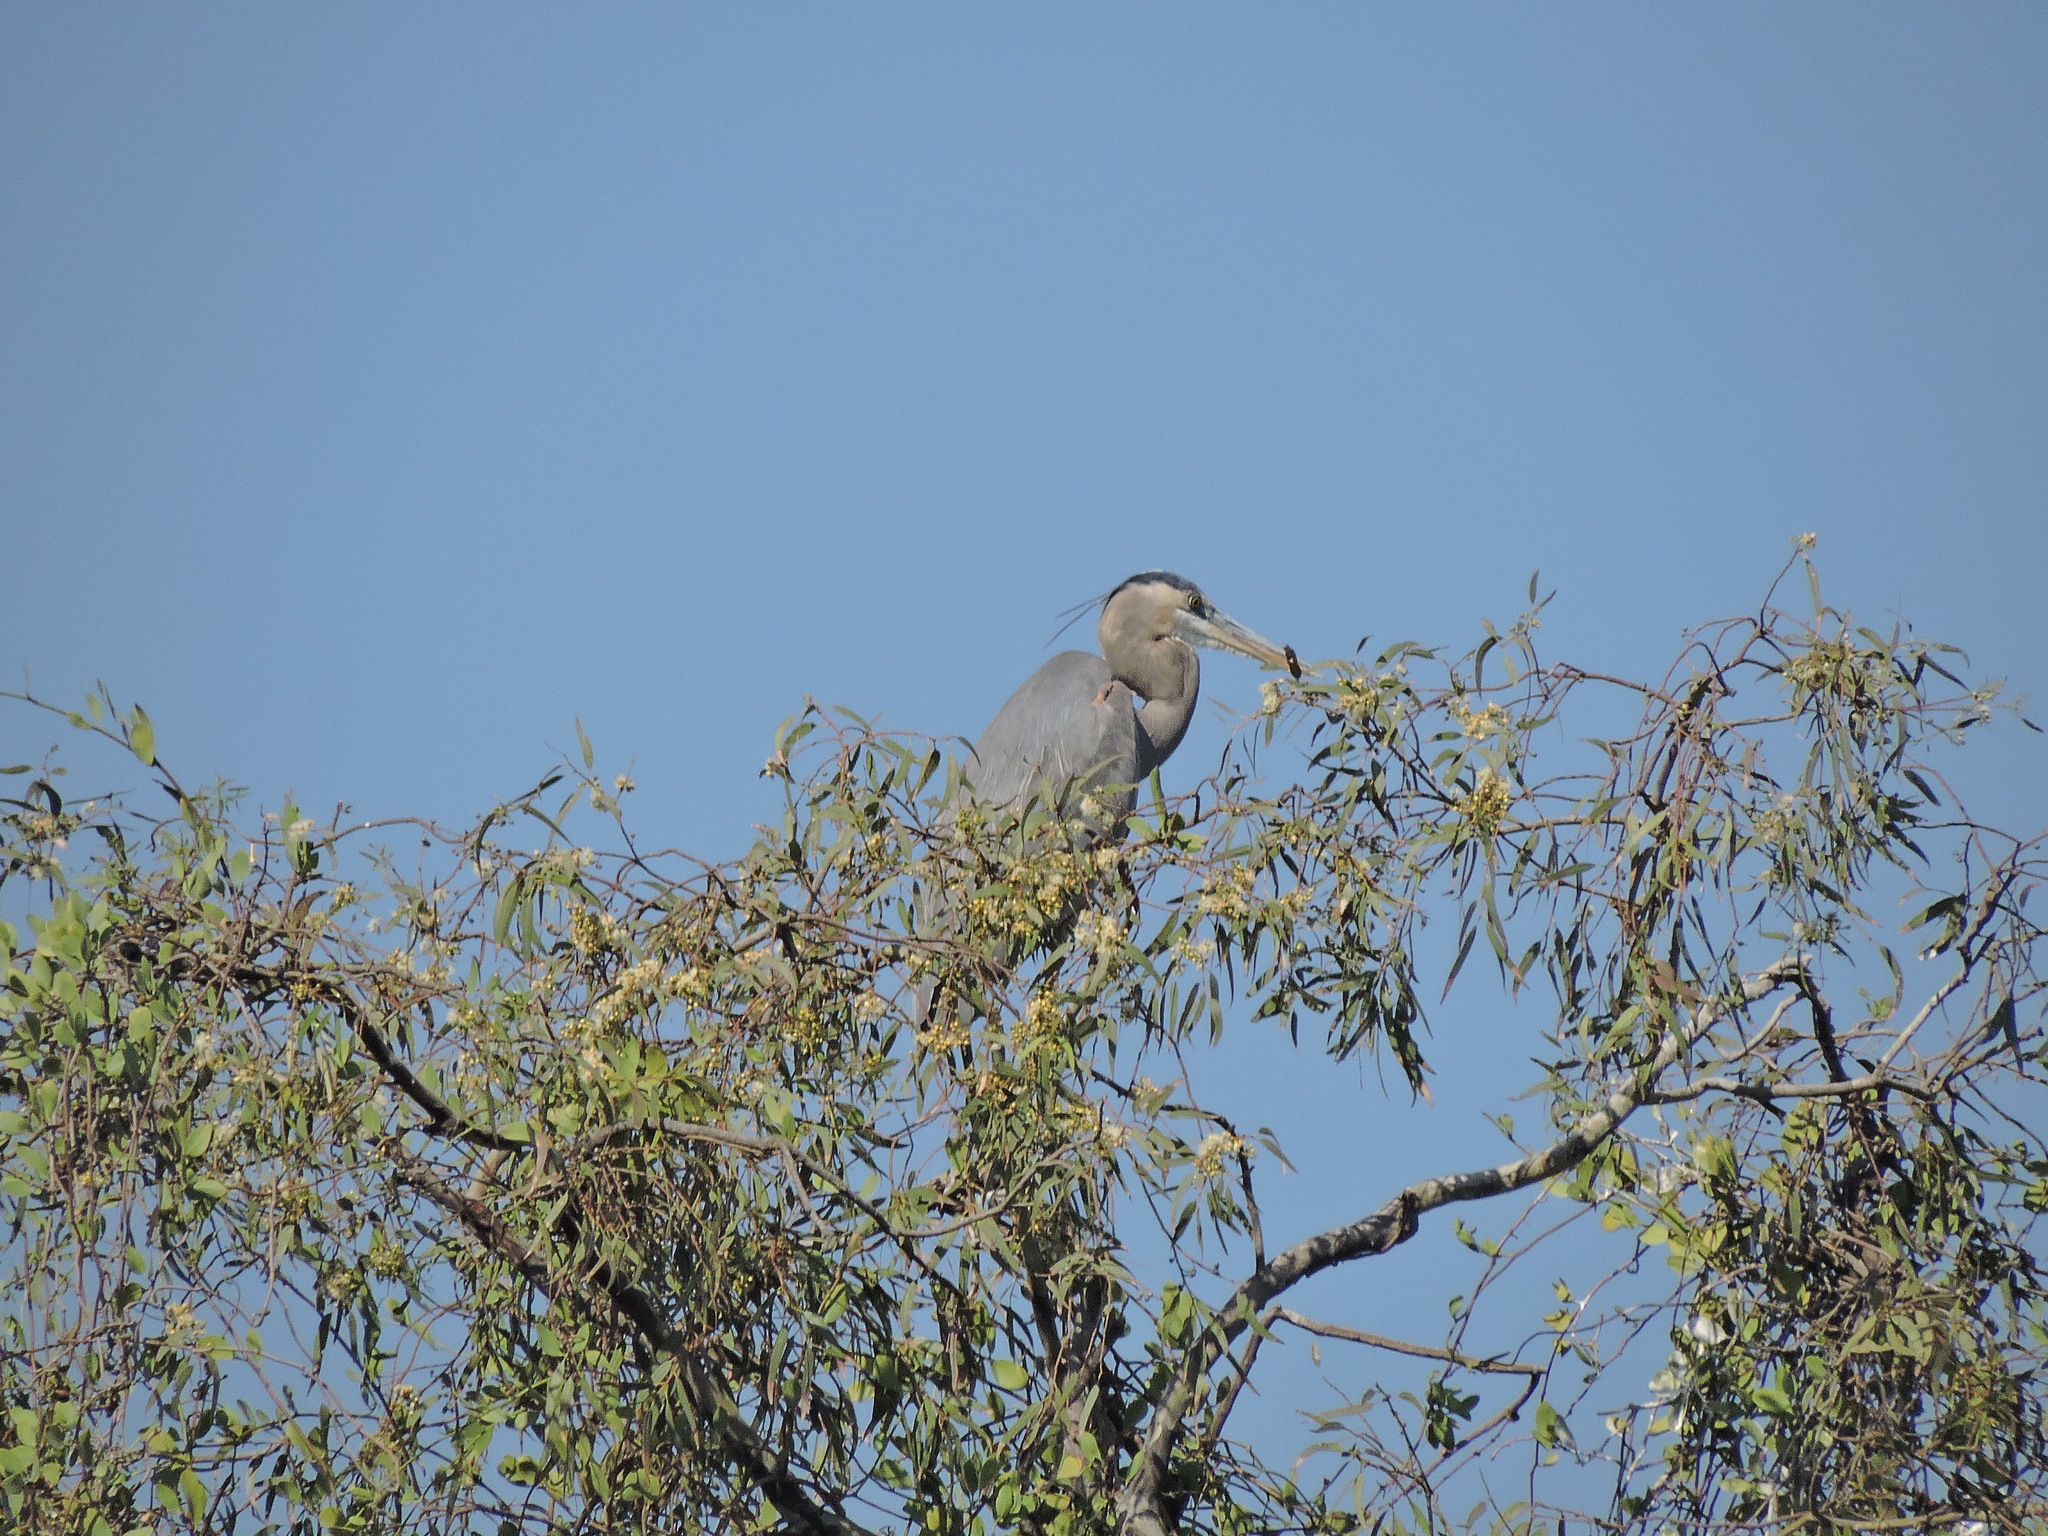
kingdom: Animalia
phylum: Chordata
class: Aves
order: Pelecaniformes
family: Ardeidae
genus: Ardea
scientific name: Ardea herodias
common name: Great blue heron
